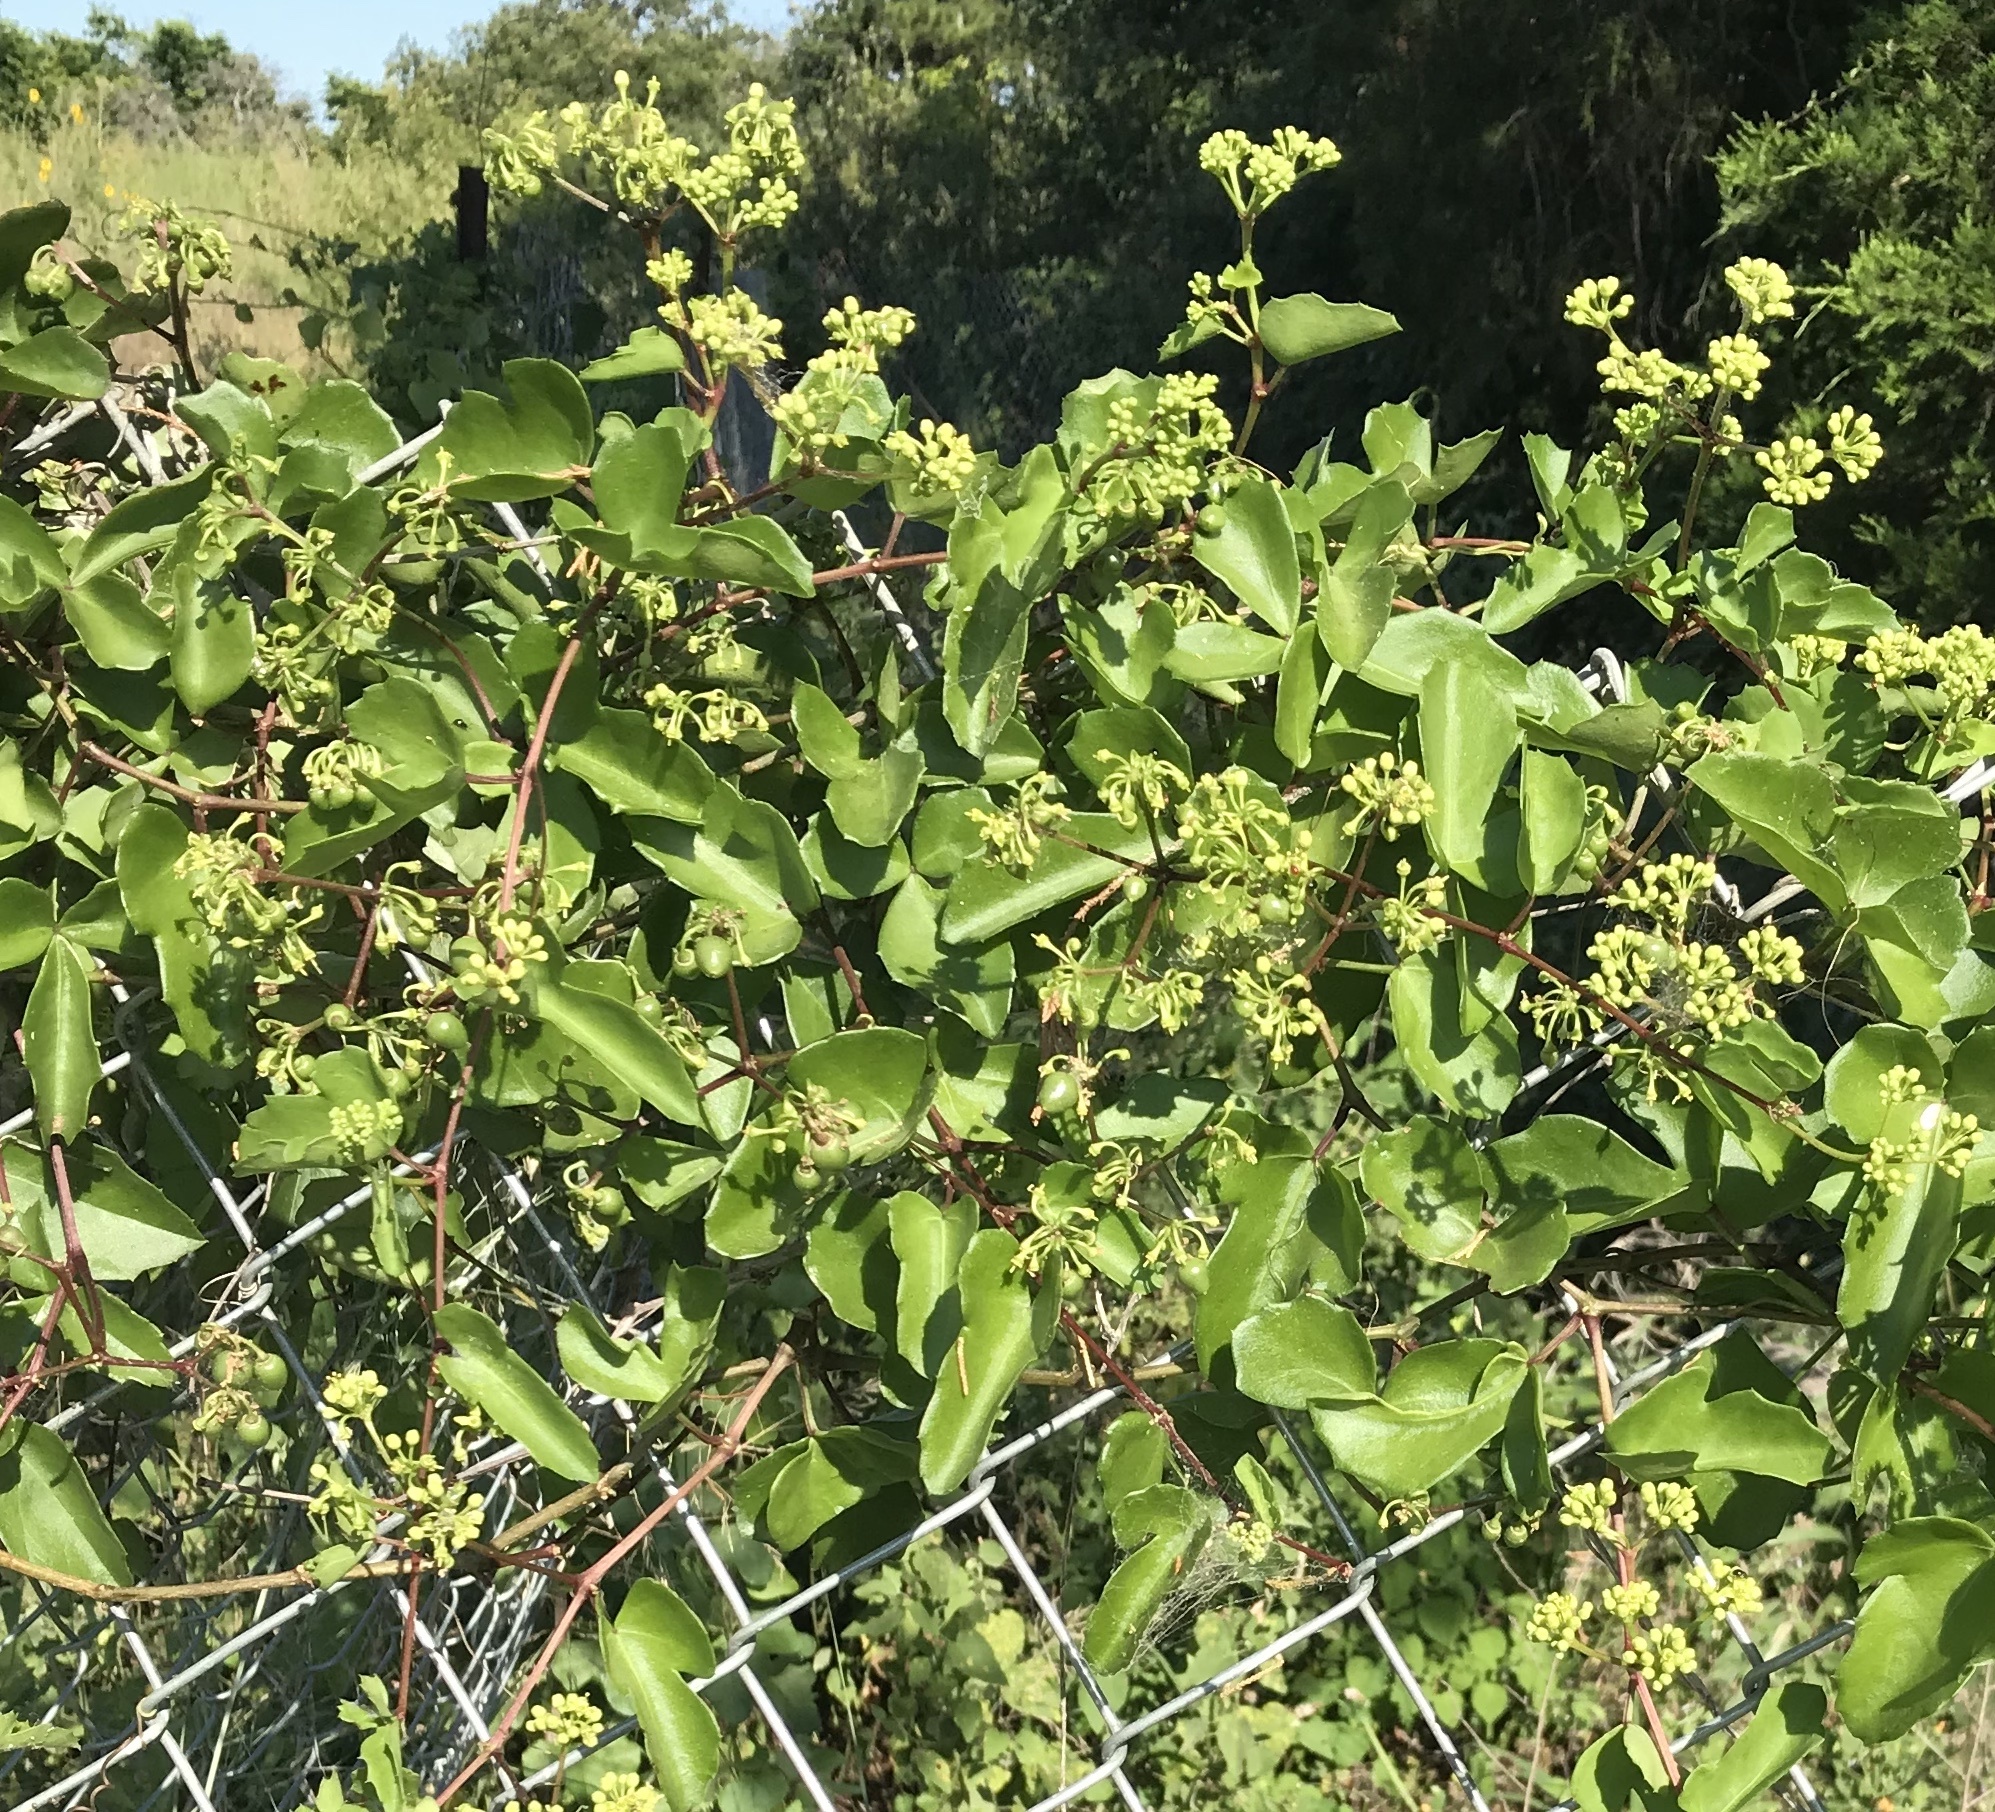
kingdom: Plantae
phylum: Tracheophyta
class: Magnoliopsida
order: Vitales
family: Vitaceae
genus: Cissus
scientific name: Cissus trifoliata
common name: Vine-sorrel
